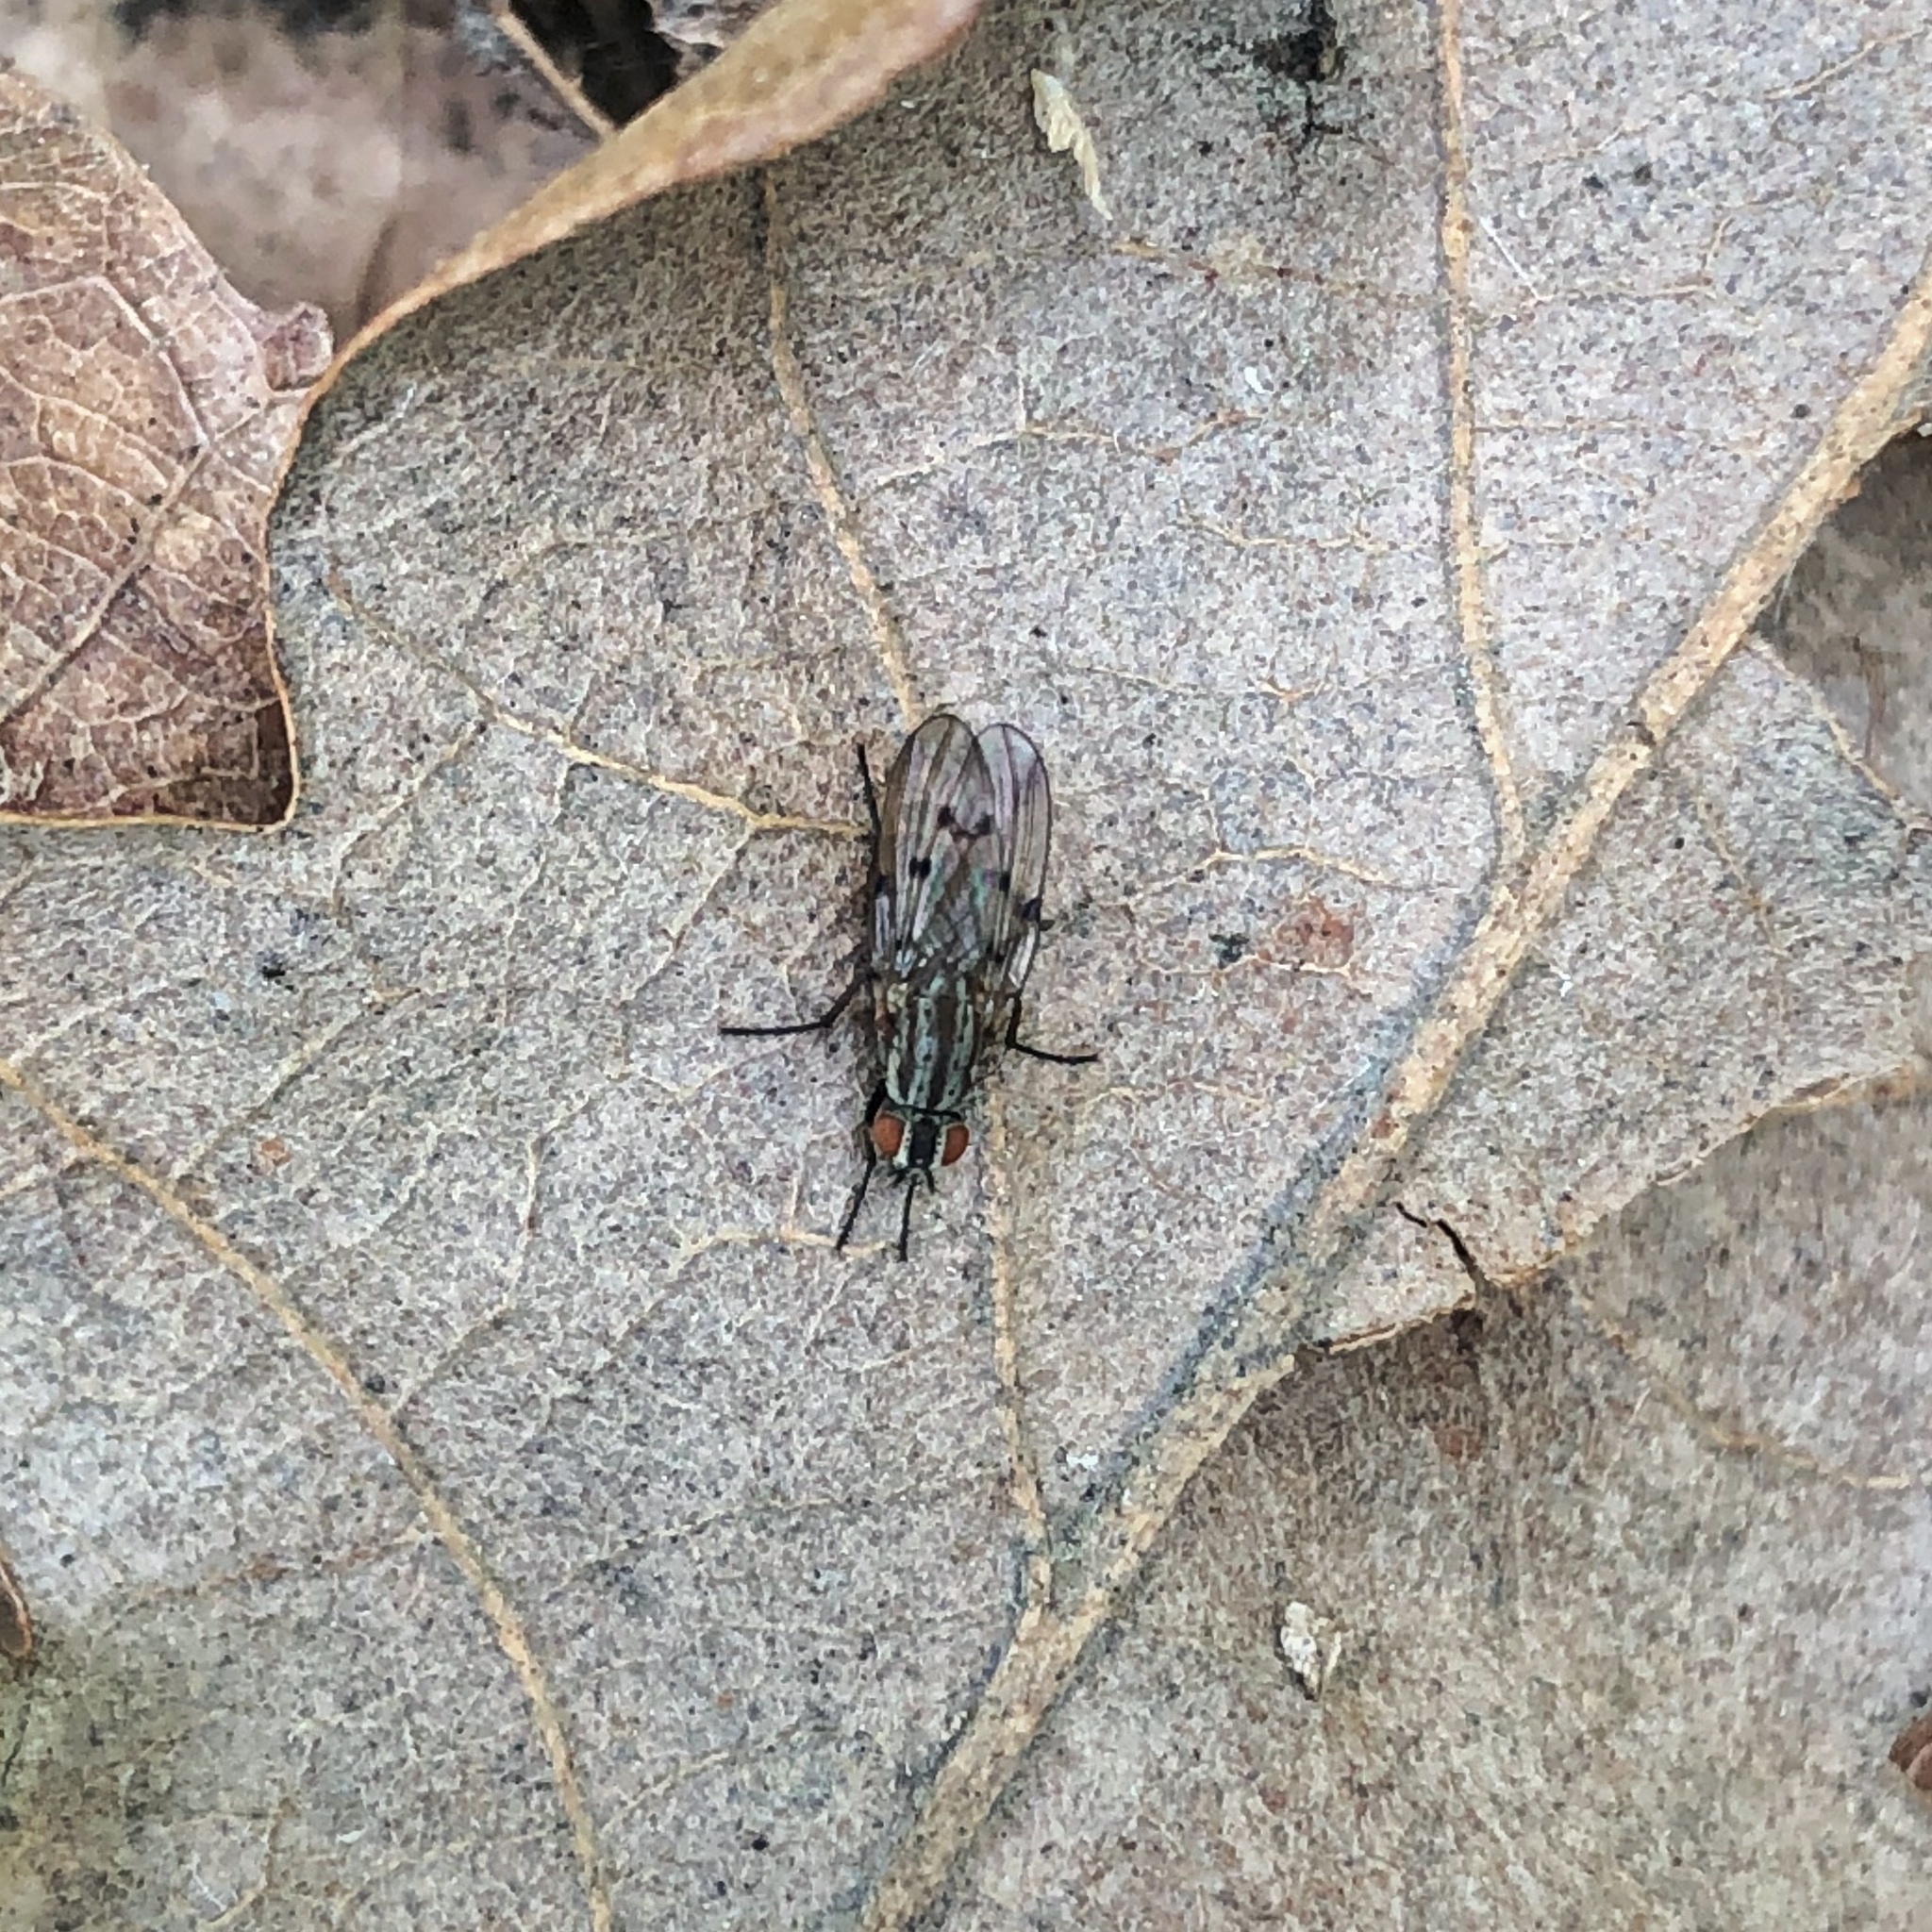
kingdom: Animalia
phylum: Arthropoda
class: Insecta
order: Diptera
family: Anthomyiidae
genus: Anthomyia
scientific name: Anthomyia punctipennis
